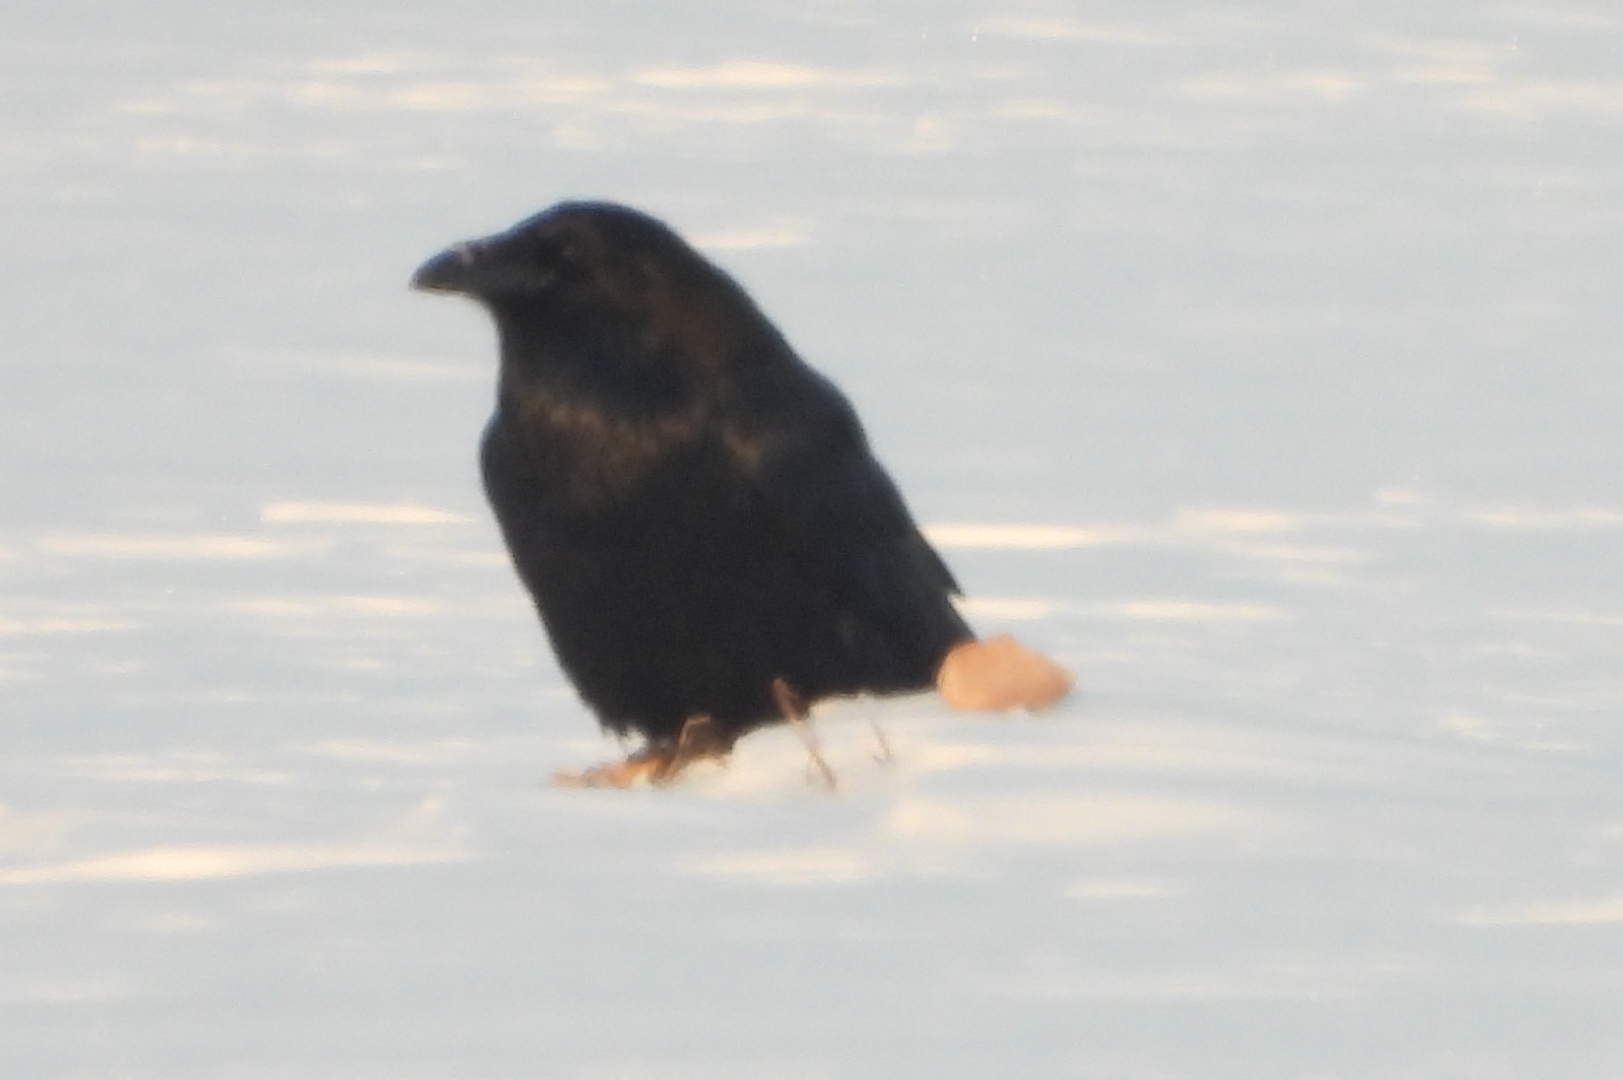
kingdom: Animalia
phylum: Chordata
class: Aves
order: Passeriformes
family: Corvidae
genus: Corvus
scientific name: Corvus corax
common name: Common raven
